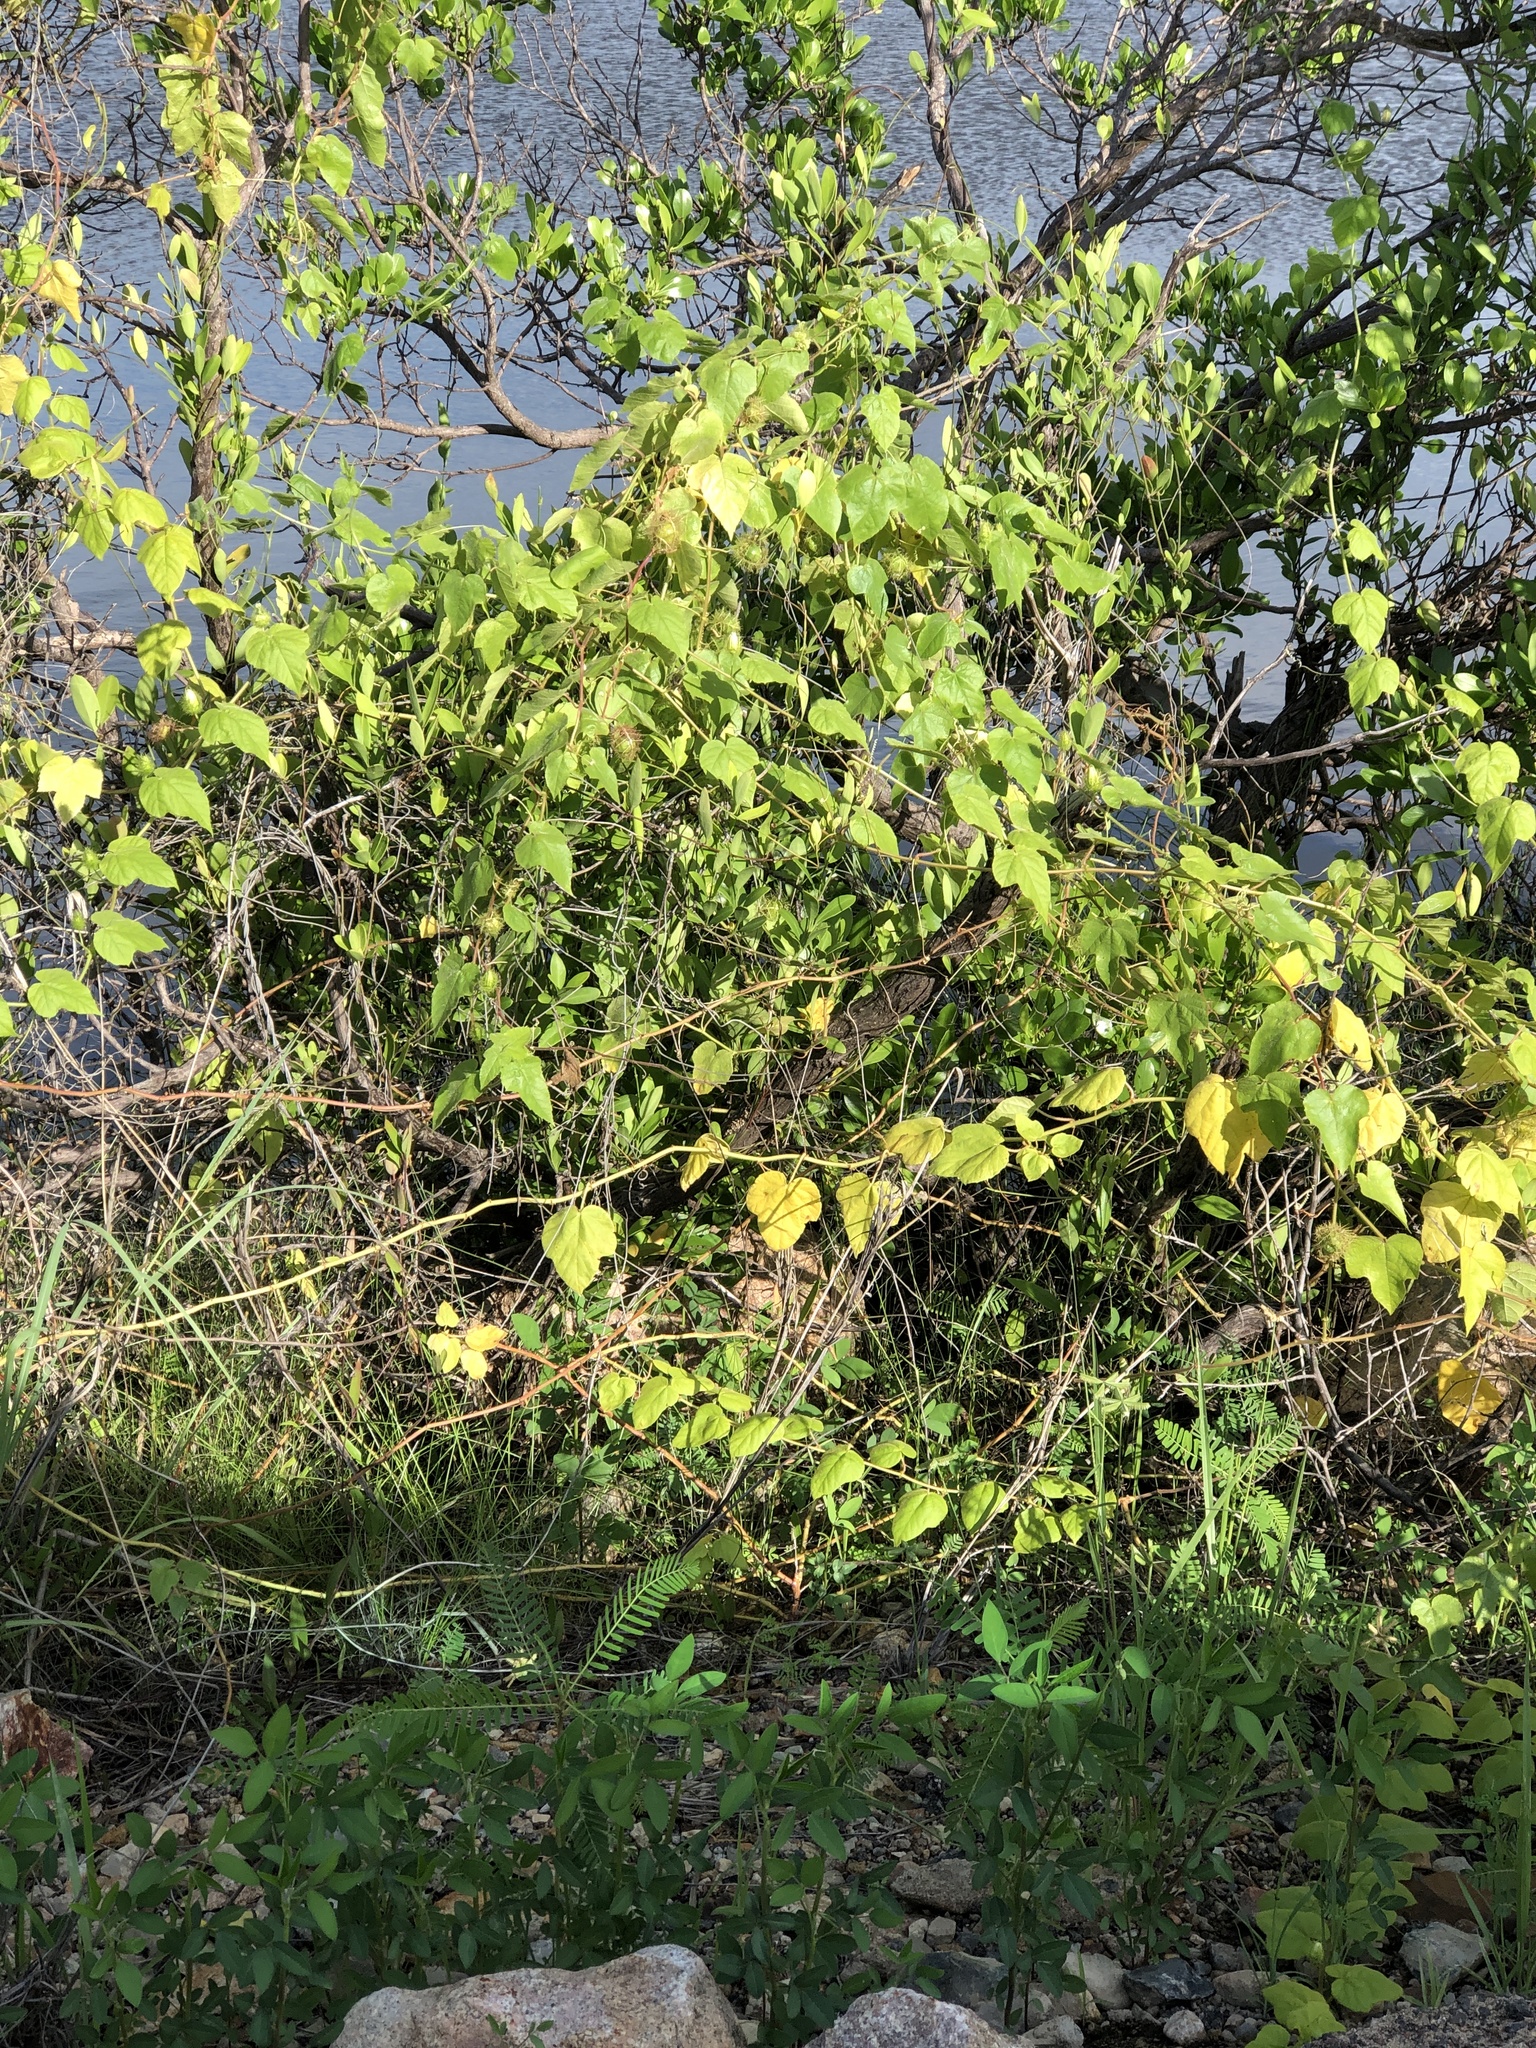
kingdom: Plantae
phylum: Tracheophyta
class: Magnoliopsida
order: Malpighiales
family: Passifloraceae
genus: Passiflora
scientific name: Passiflora foetida
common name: Fetid passionflower
